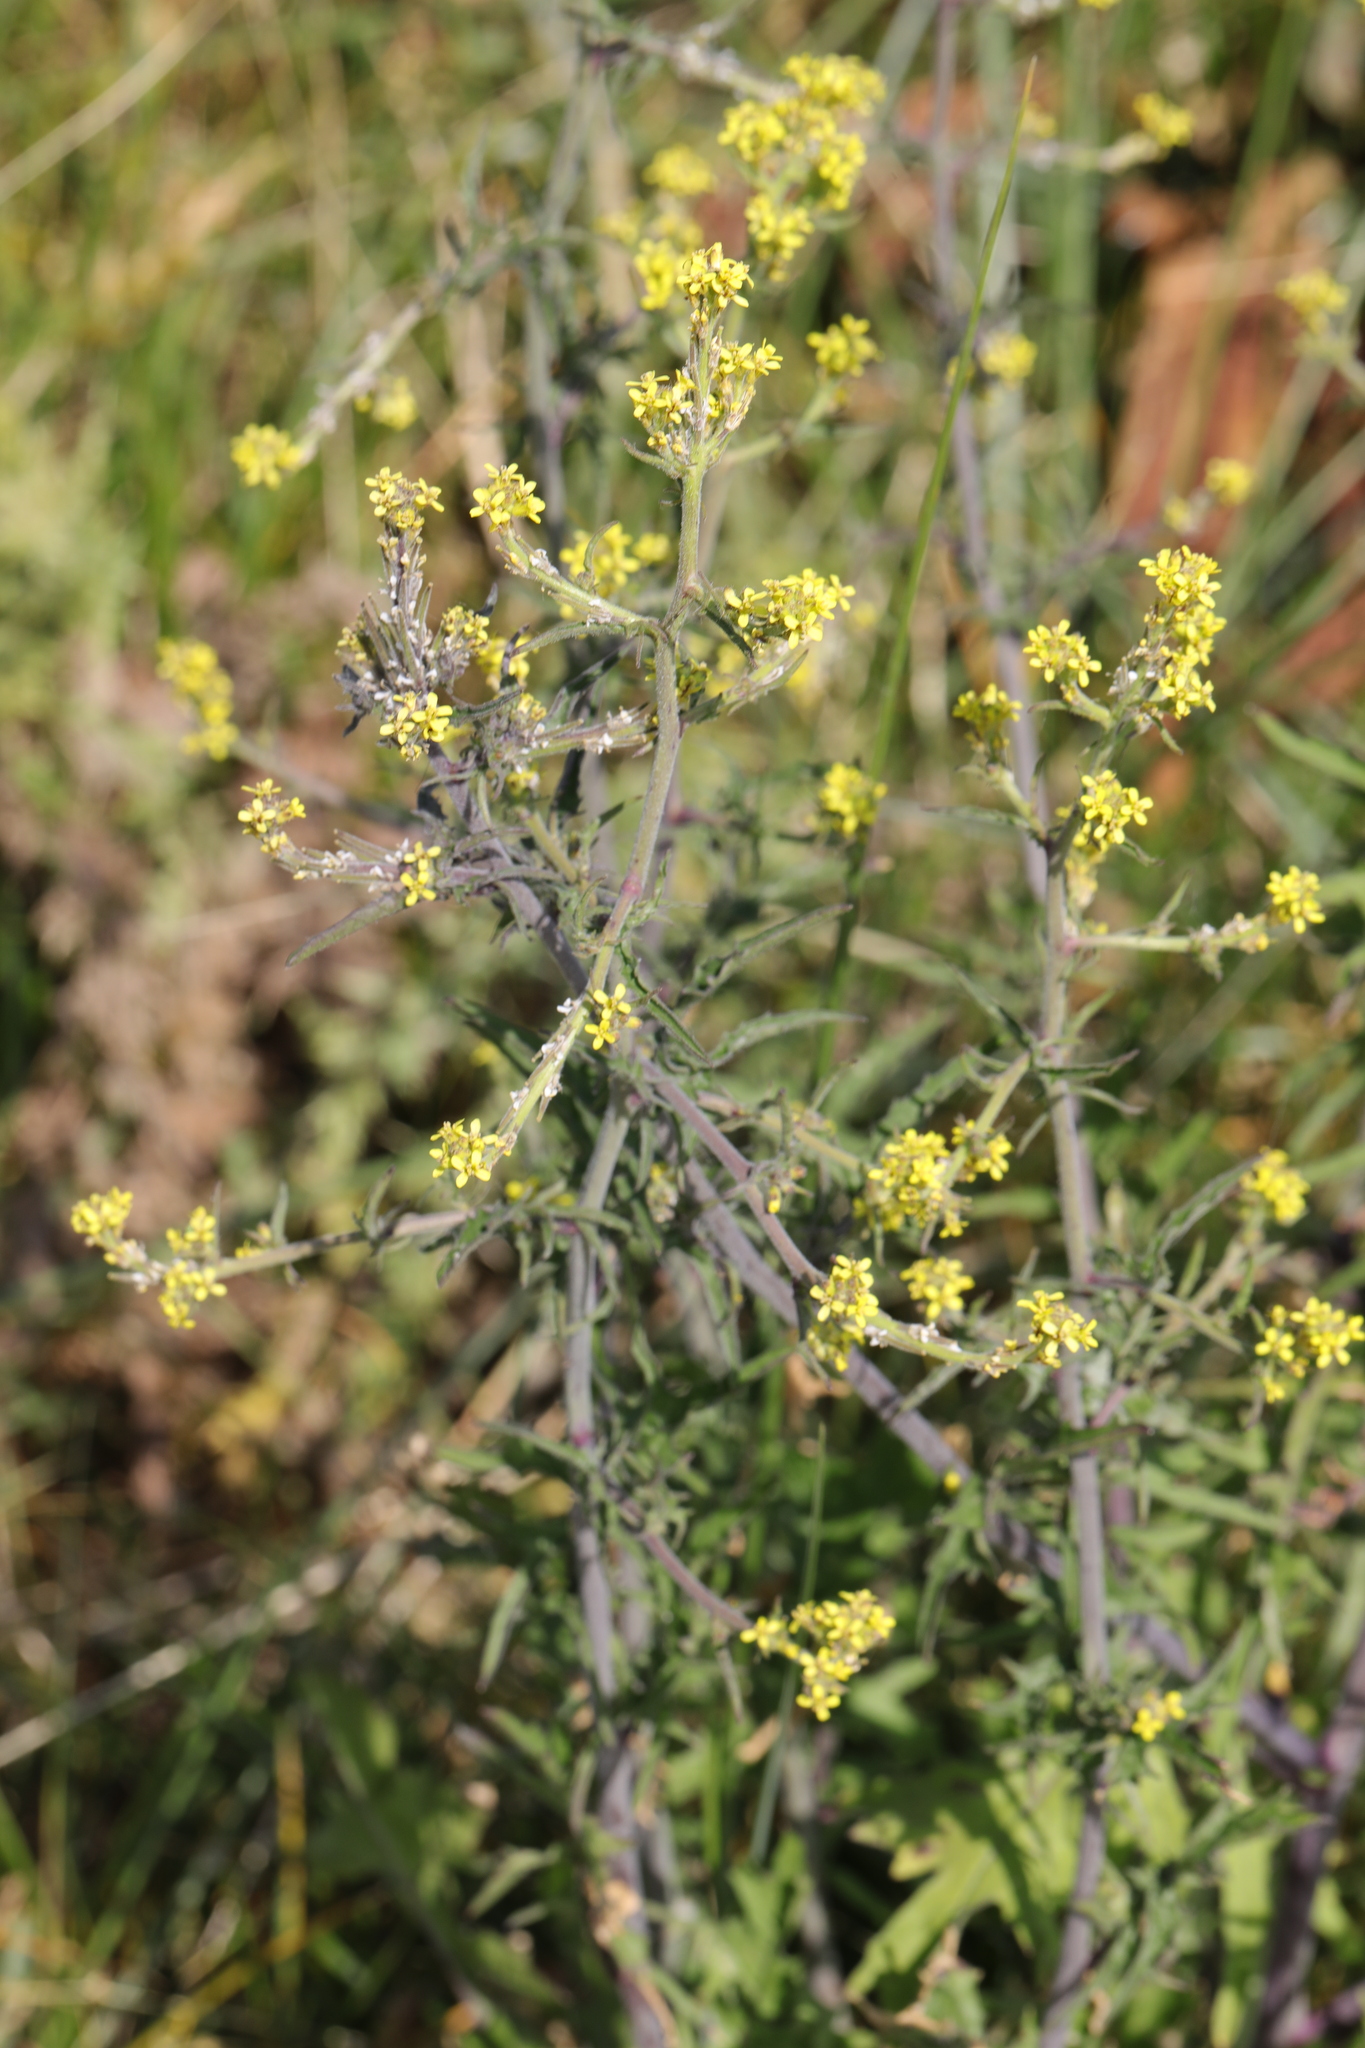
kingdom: Plantae
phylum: Tracheophyta
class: Magnoliopsida
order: Brassicales
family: Brassicaceae
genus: Sisymbrium
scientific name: Sisymbrium officinale
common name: Hedge mustard
